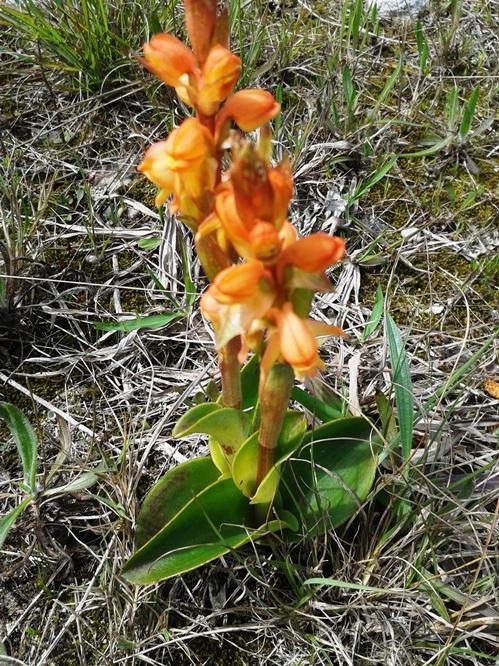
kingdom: Plantae
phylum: Tracheophyta
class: Liliopsida
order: Asparagales
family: Orchidaceae
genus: Satyrium
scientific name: Satyrium coriifolium
